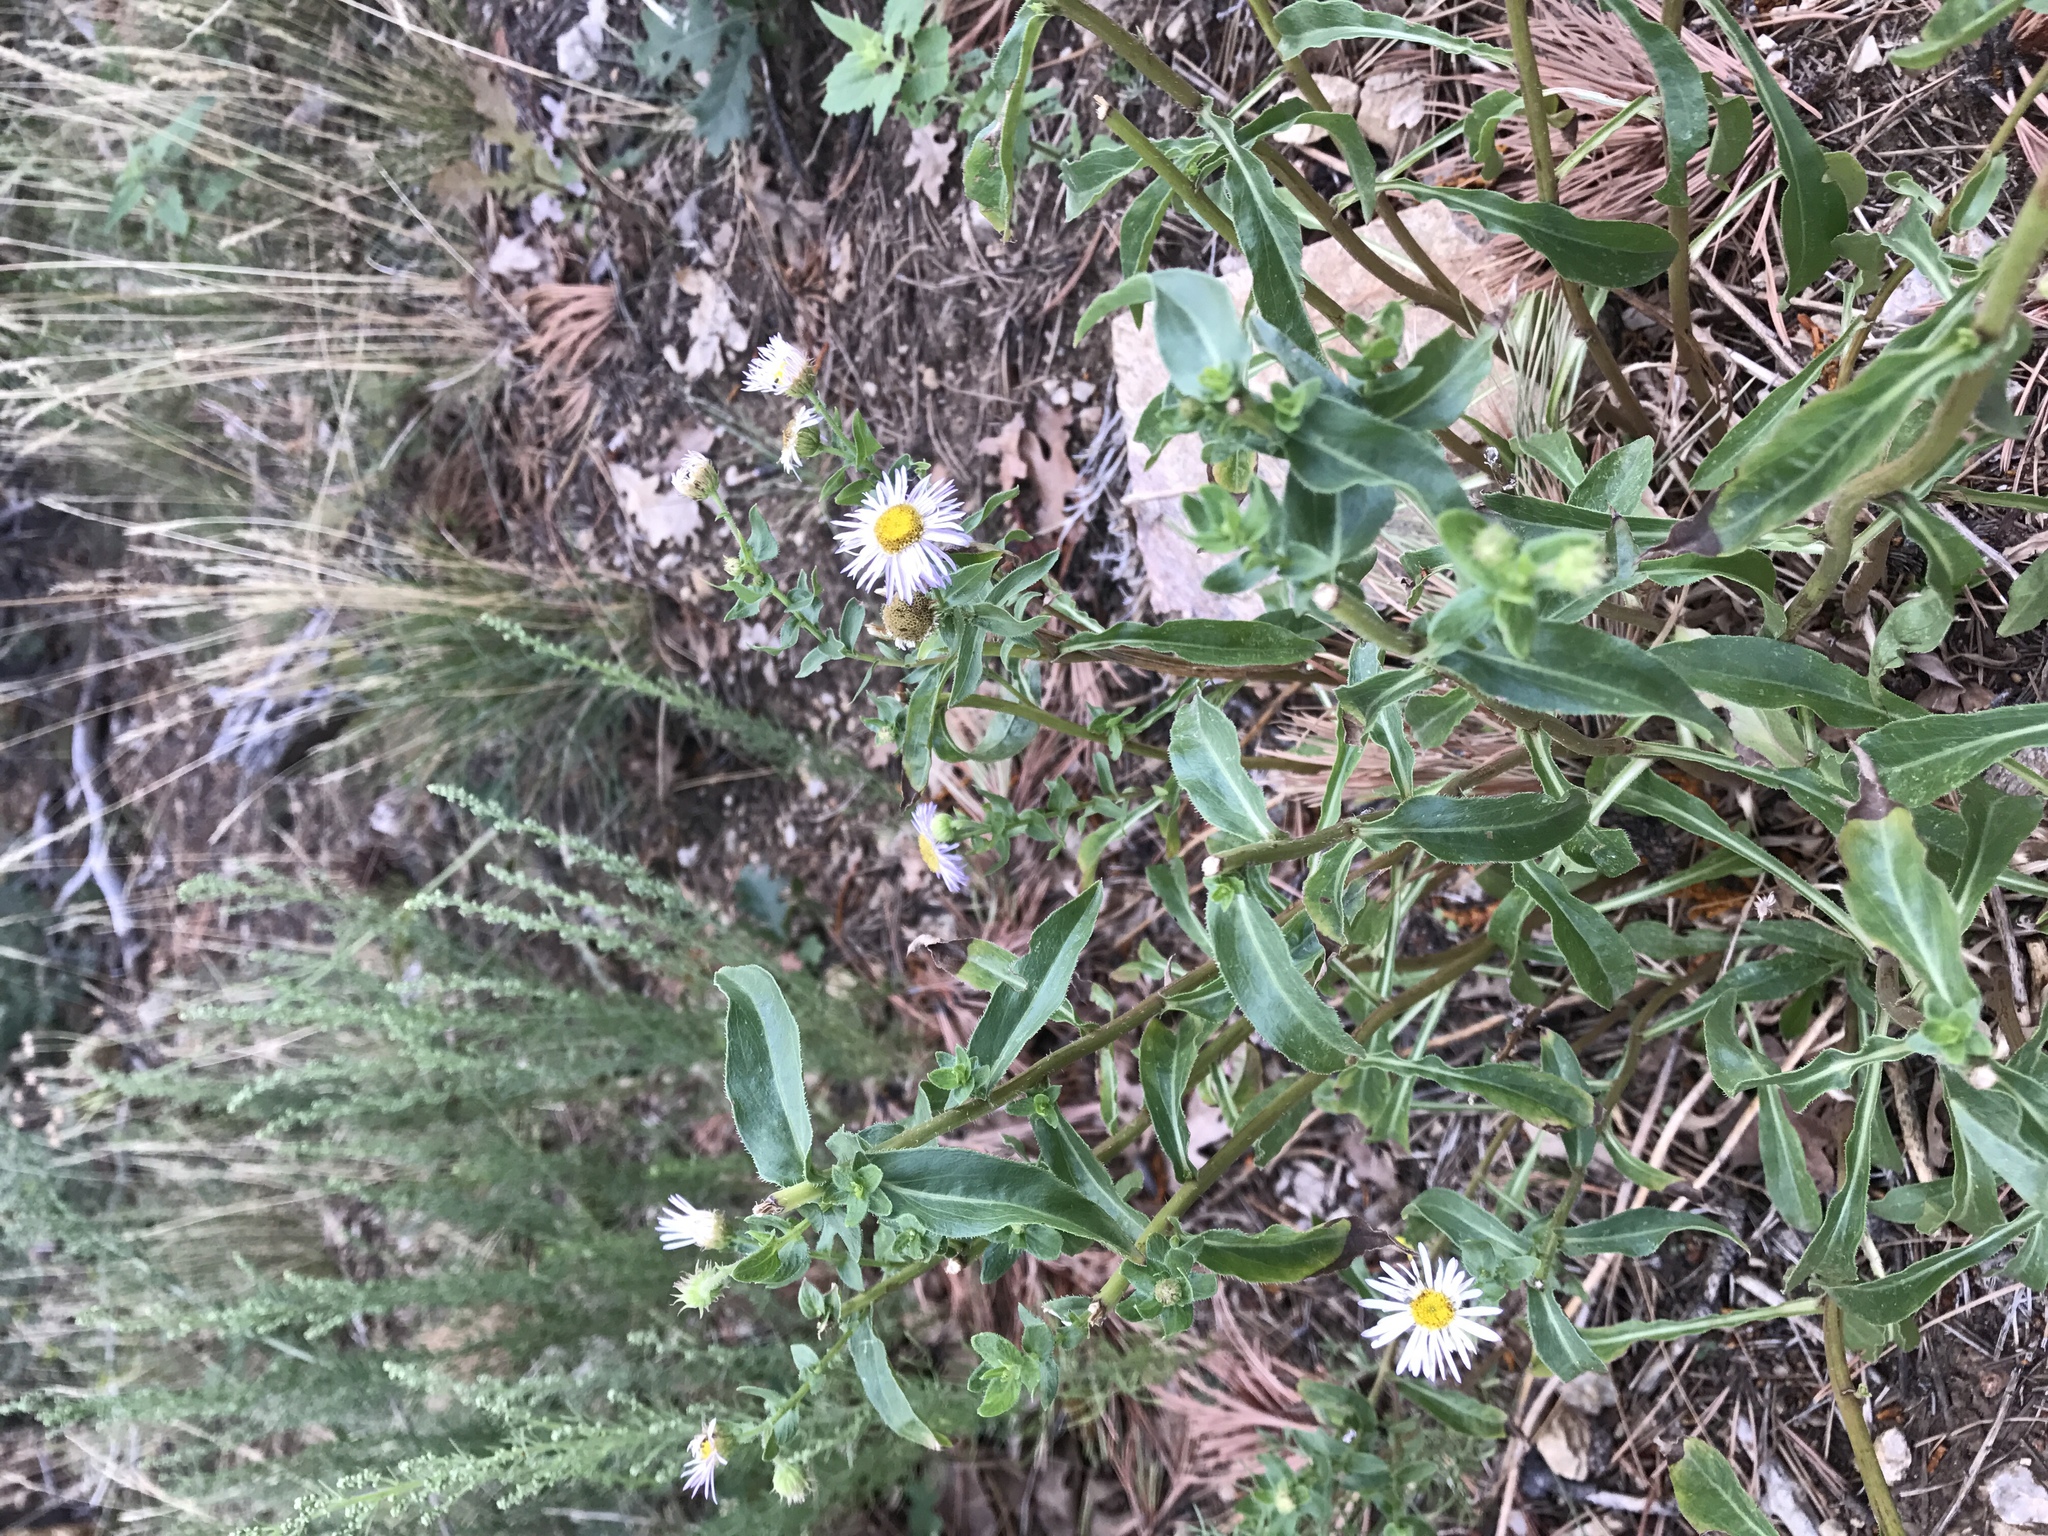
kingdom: Plantae
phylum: Tracheophyta
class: Magnoliopsida
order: Asterales
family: Asteraceae
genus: Erigeron
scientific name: Erigeron speciosus
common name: Aspen fleabane
